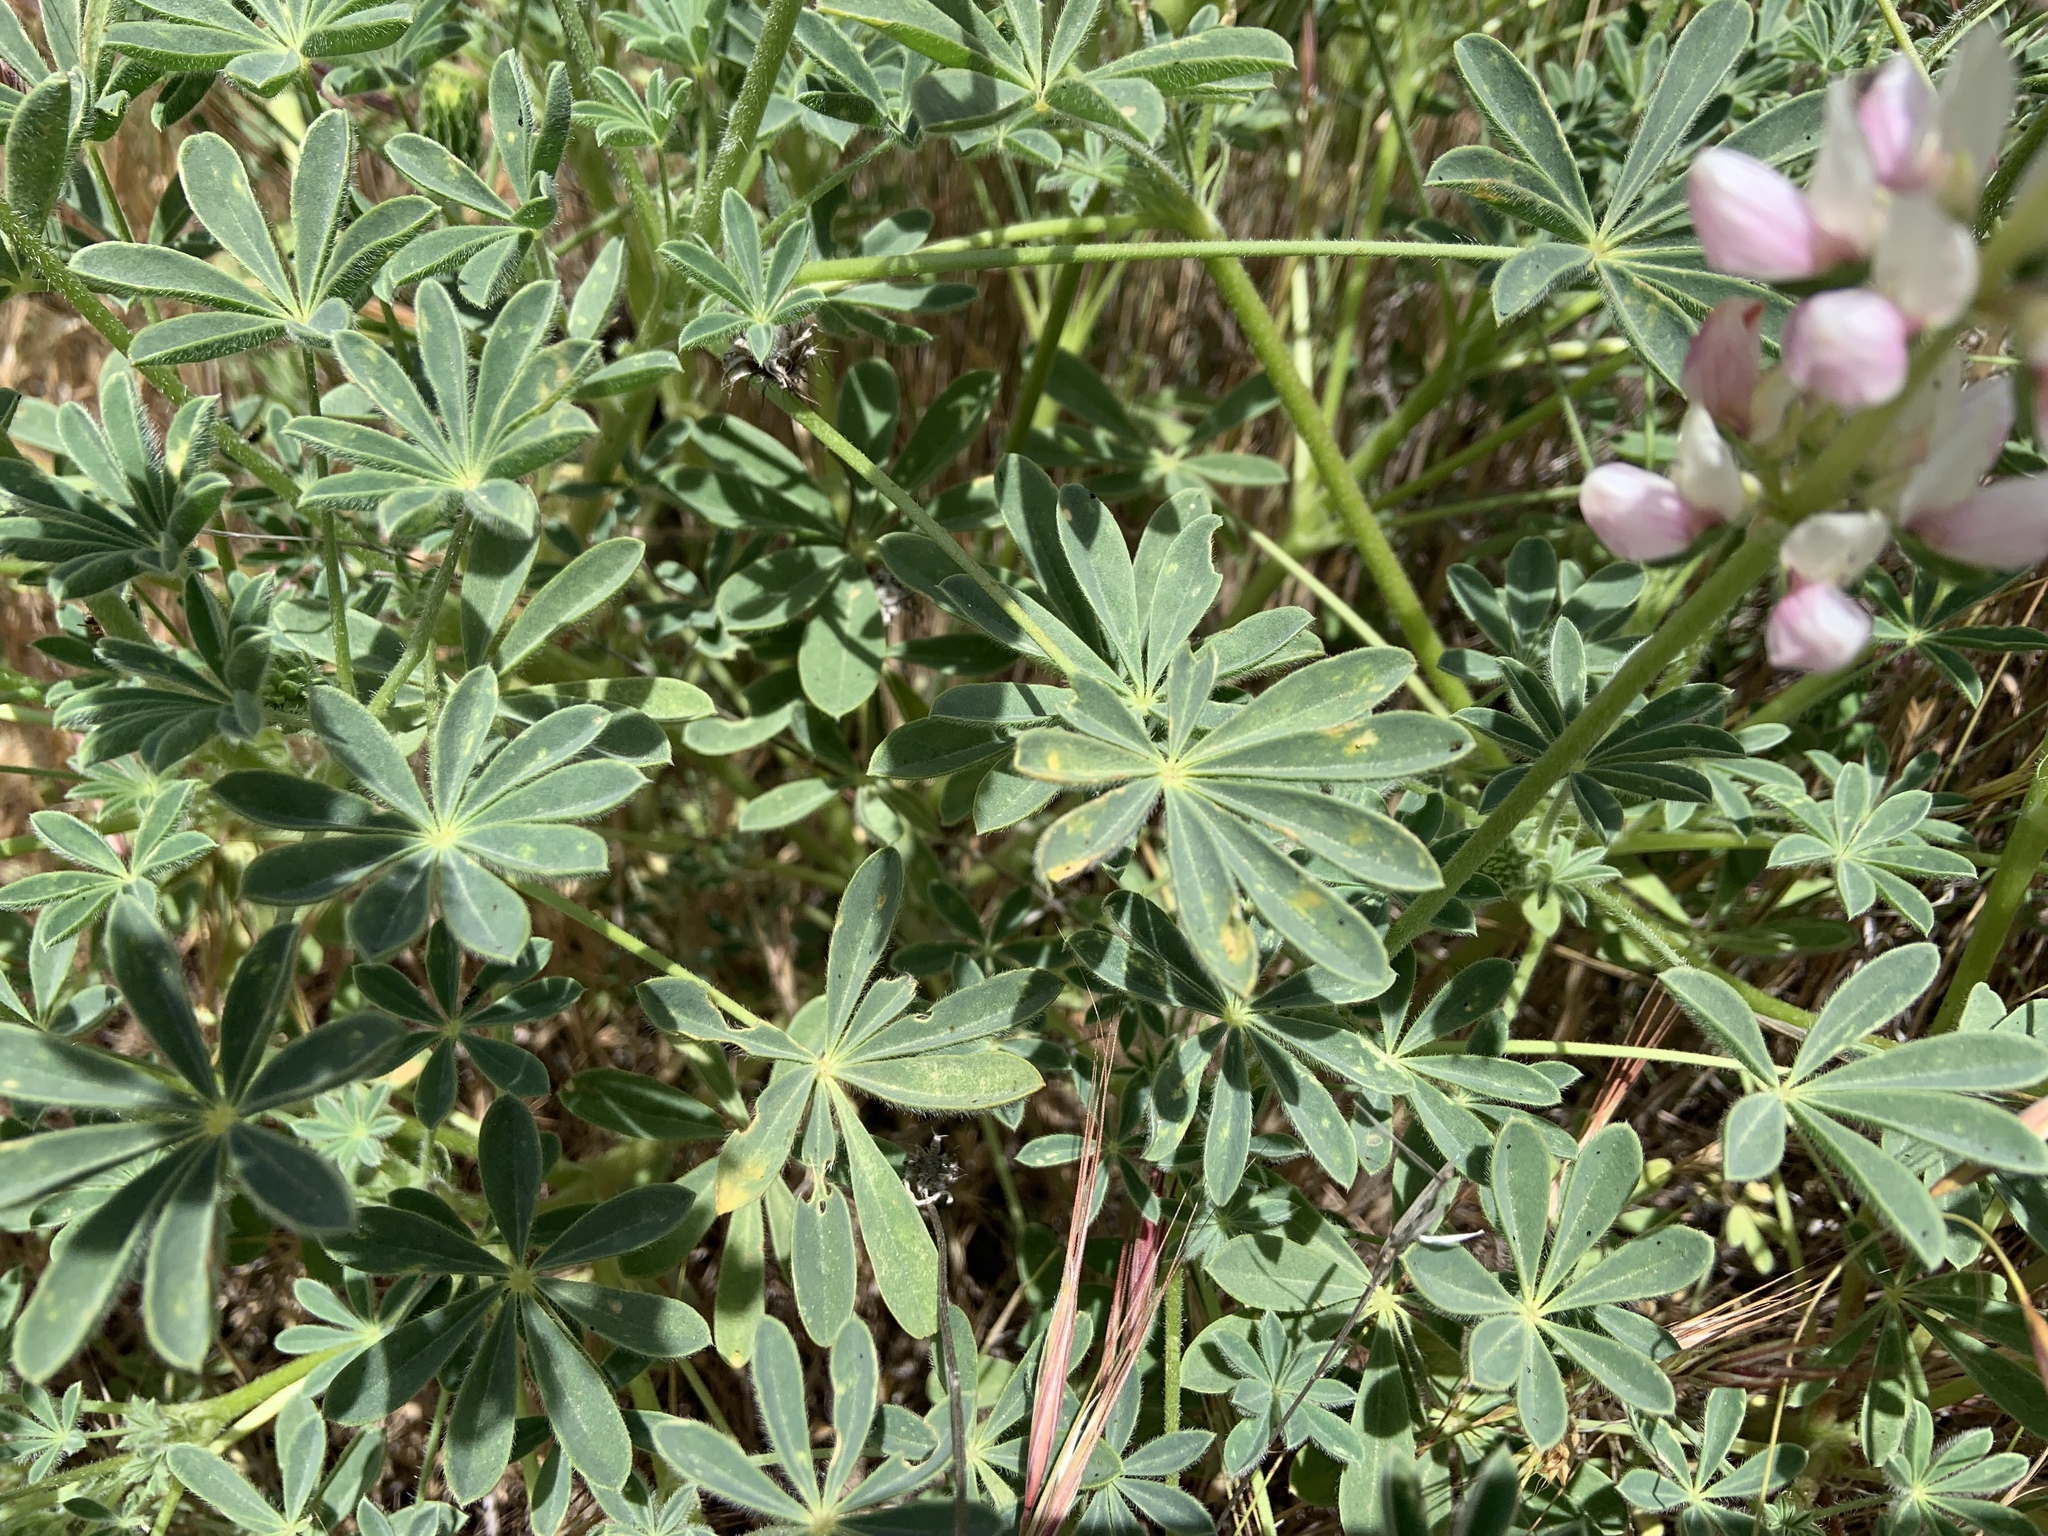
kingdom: Plantae
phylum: Tracheophyta
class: Magnoliopsida
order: Fabales
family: Fabaceae
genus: Lupinus
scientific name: Lupinus microcarpus
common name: Chick lupine
